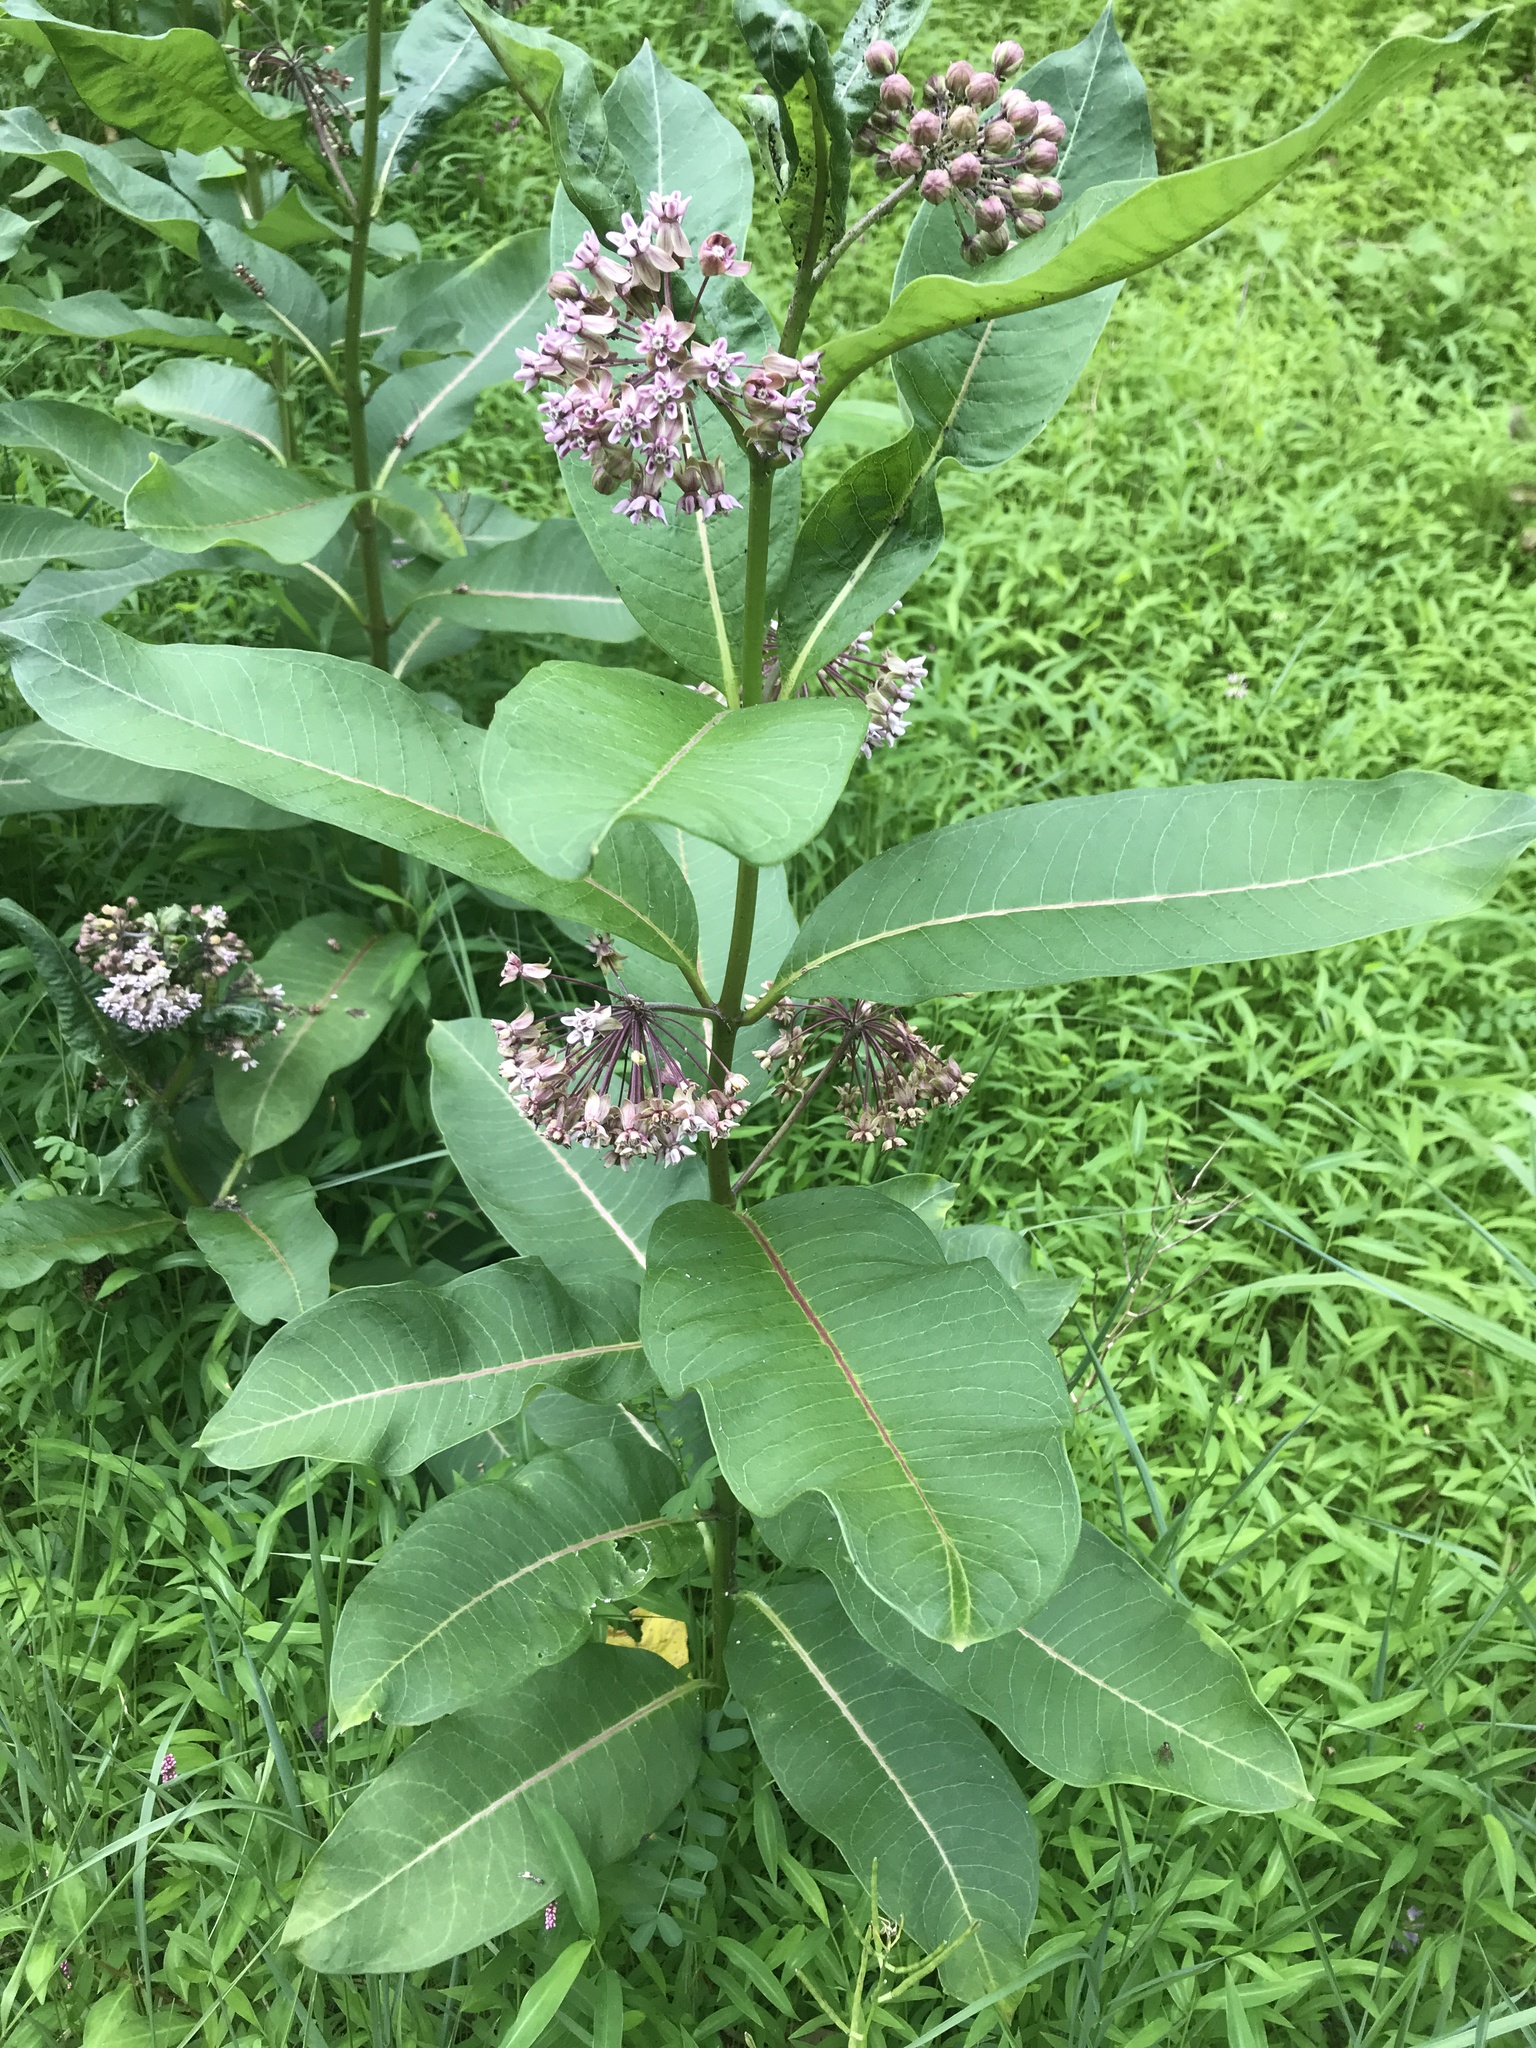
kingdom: Plantae
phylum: Tracheophyta
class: Magnoliopsida
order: Gentianales
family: Apocynaceae
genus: Asclepias
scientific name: Asclepias syriaca
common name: Common milkweed
